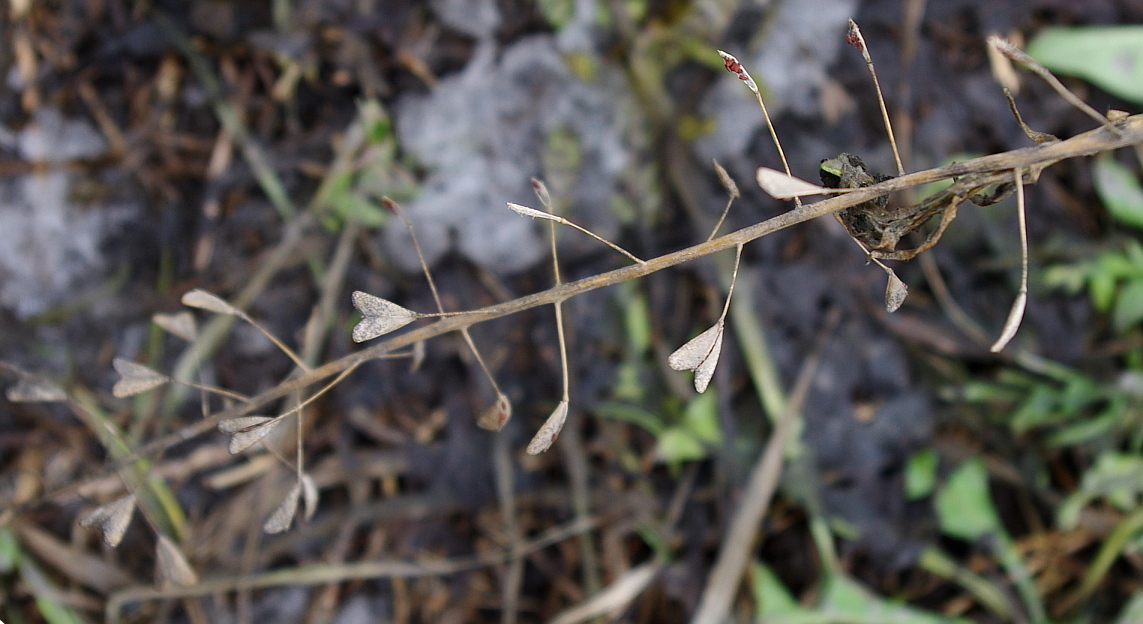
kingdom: Plantae
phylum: Tracheophyta
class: Magnoliopsida
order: Brassicales
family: Brassicaceae
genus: Capsella
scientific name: Capsella bursa-pastoris
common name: Shepherd's purse
